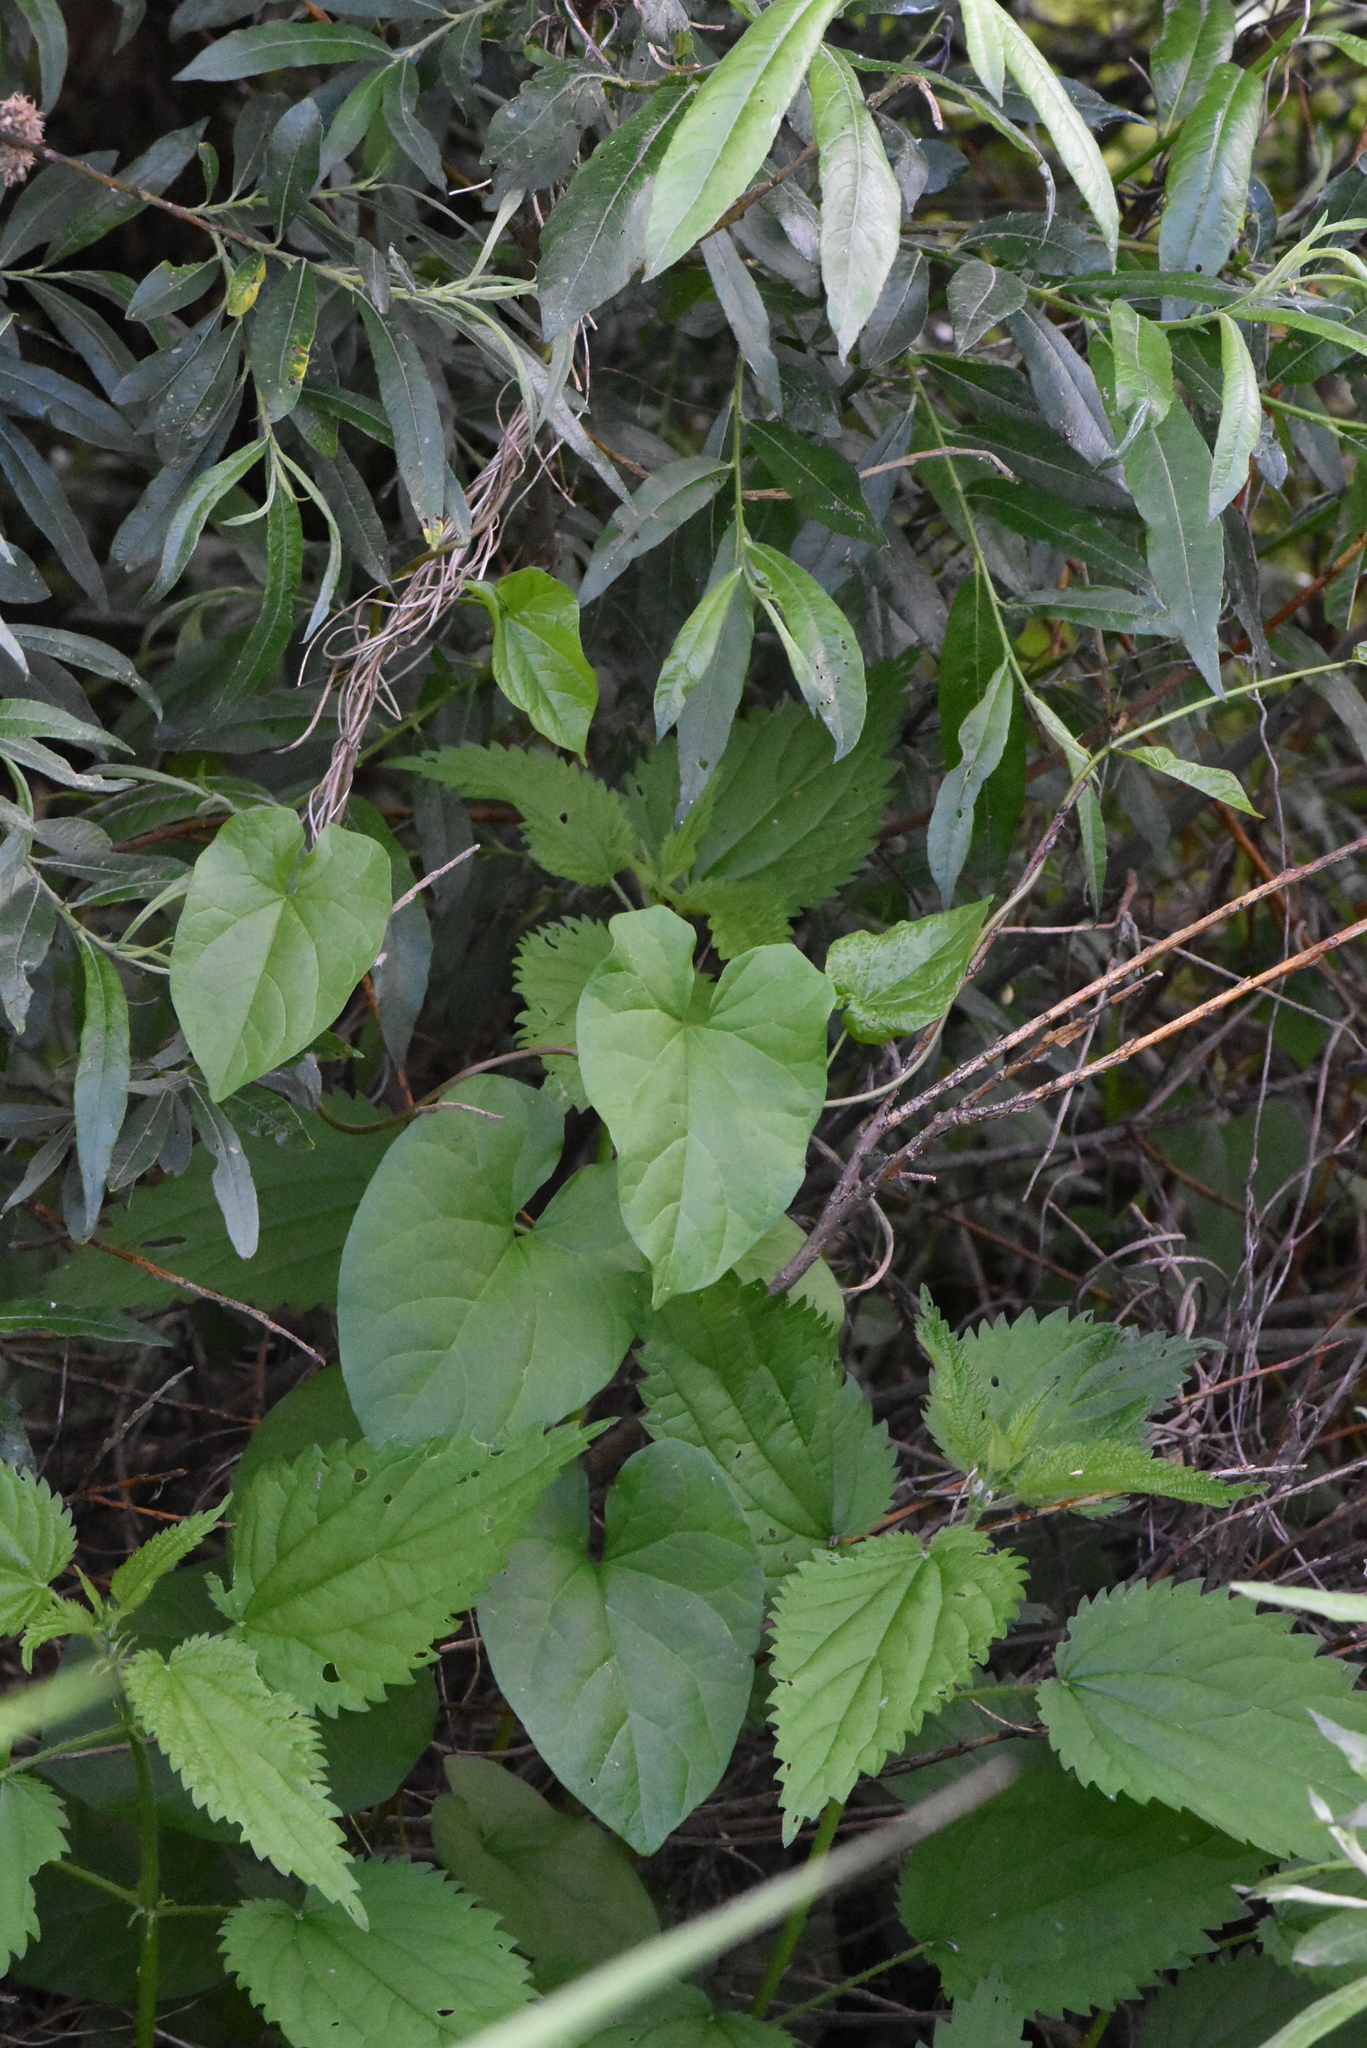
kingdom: Plantae
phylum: Tracheophyta
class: Magnoliopsida
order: Solanales
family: Convolvulaceae
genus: Calystegia
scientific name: Calystegia
